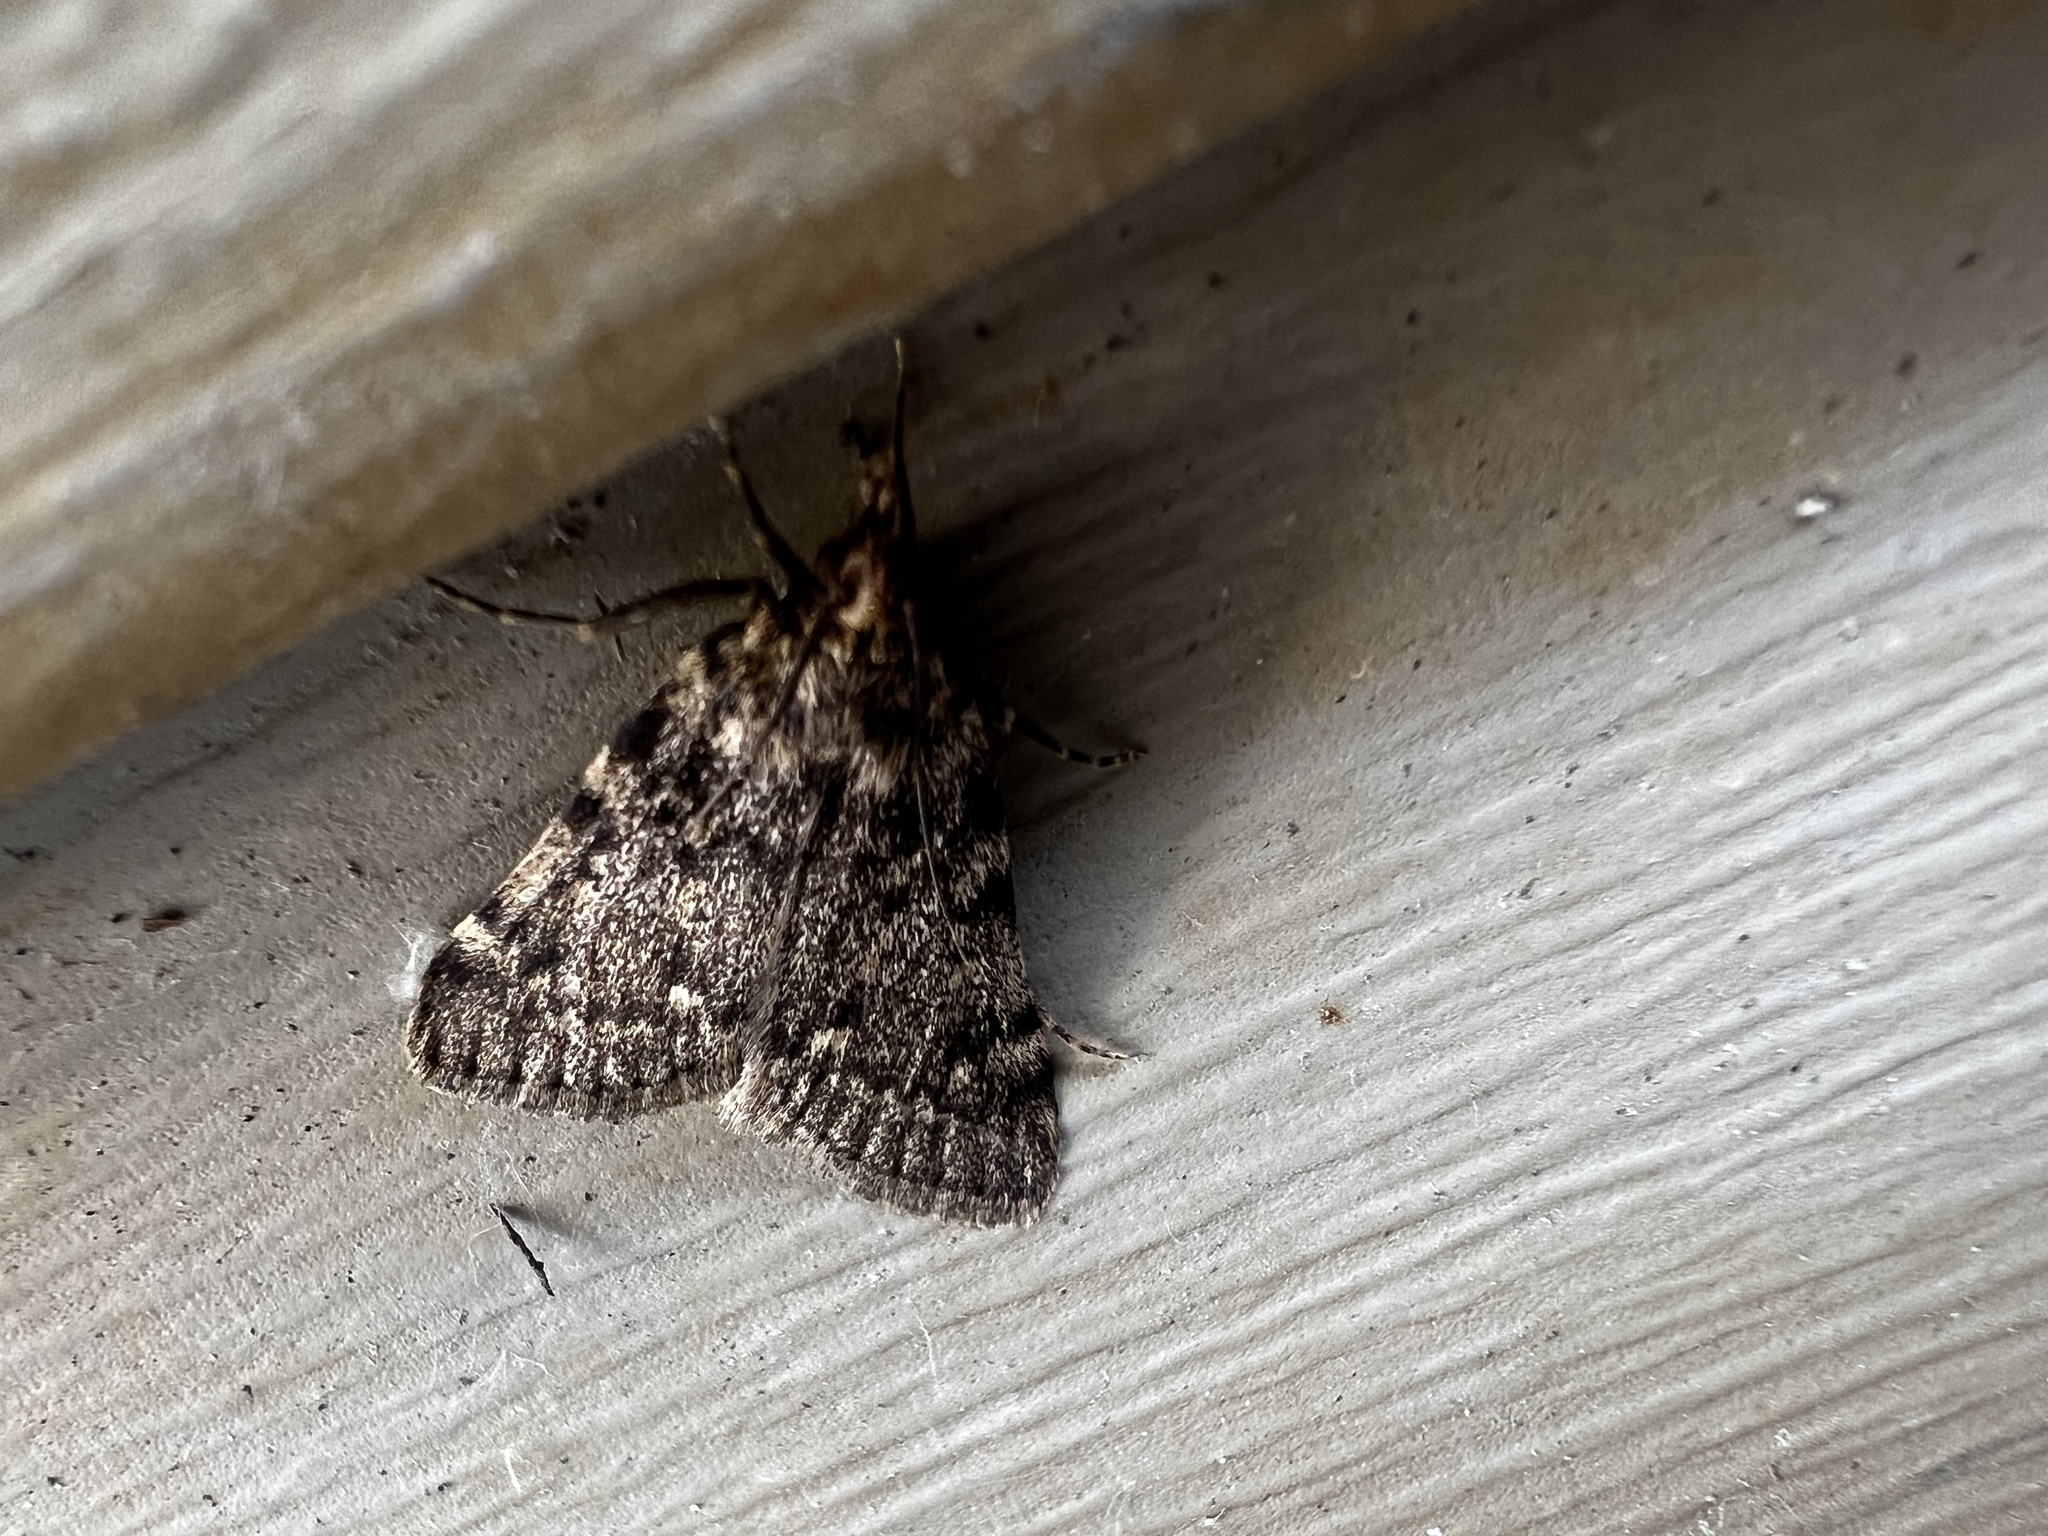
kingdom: Animalia
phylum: Arthropoda
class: Insecta
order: Lepidoptera
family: Pyralidae
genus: Aglossa
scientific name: Aglossa pinguinalis
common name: Large tabby
